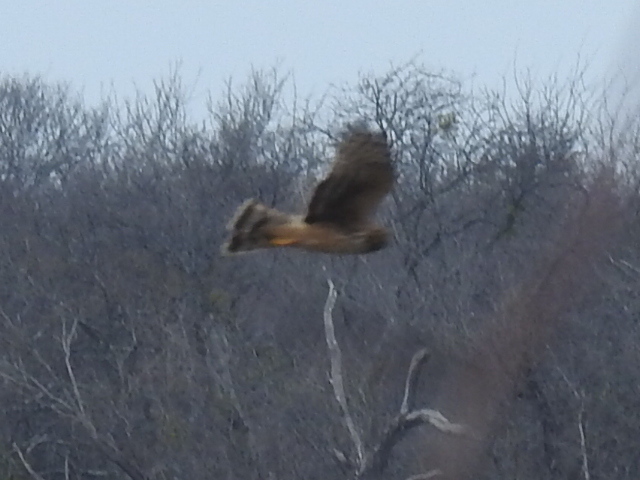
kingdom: Animalia
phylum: Chordata
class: Aves
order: Accipitriformes
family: Accipitridae
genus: Circus
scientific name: Circus cyaneus
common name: Hen harrier
